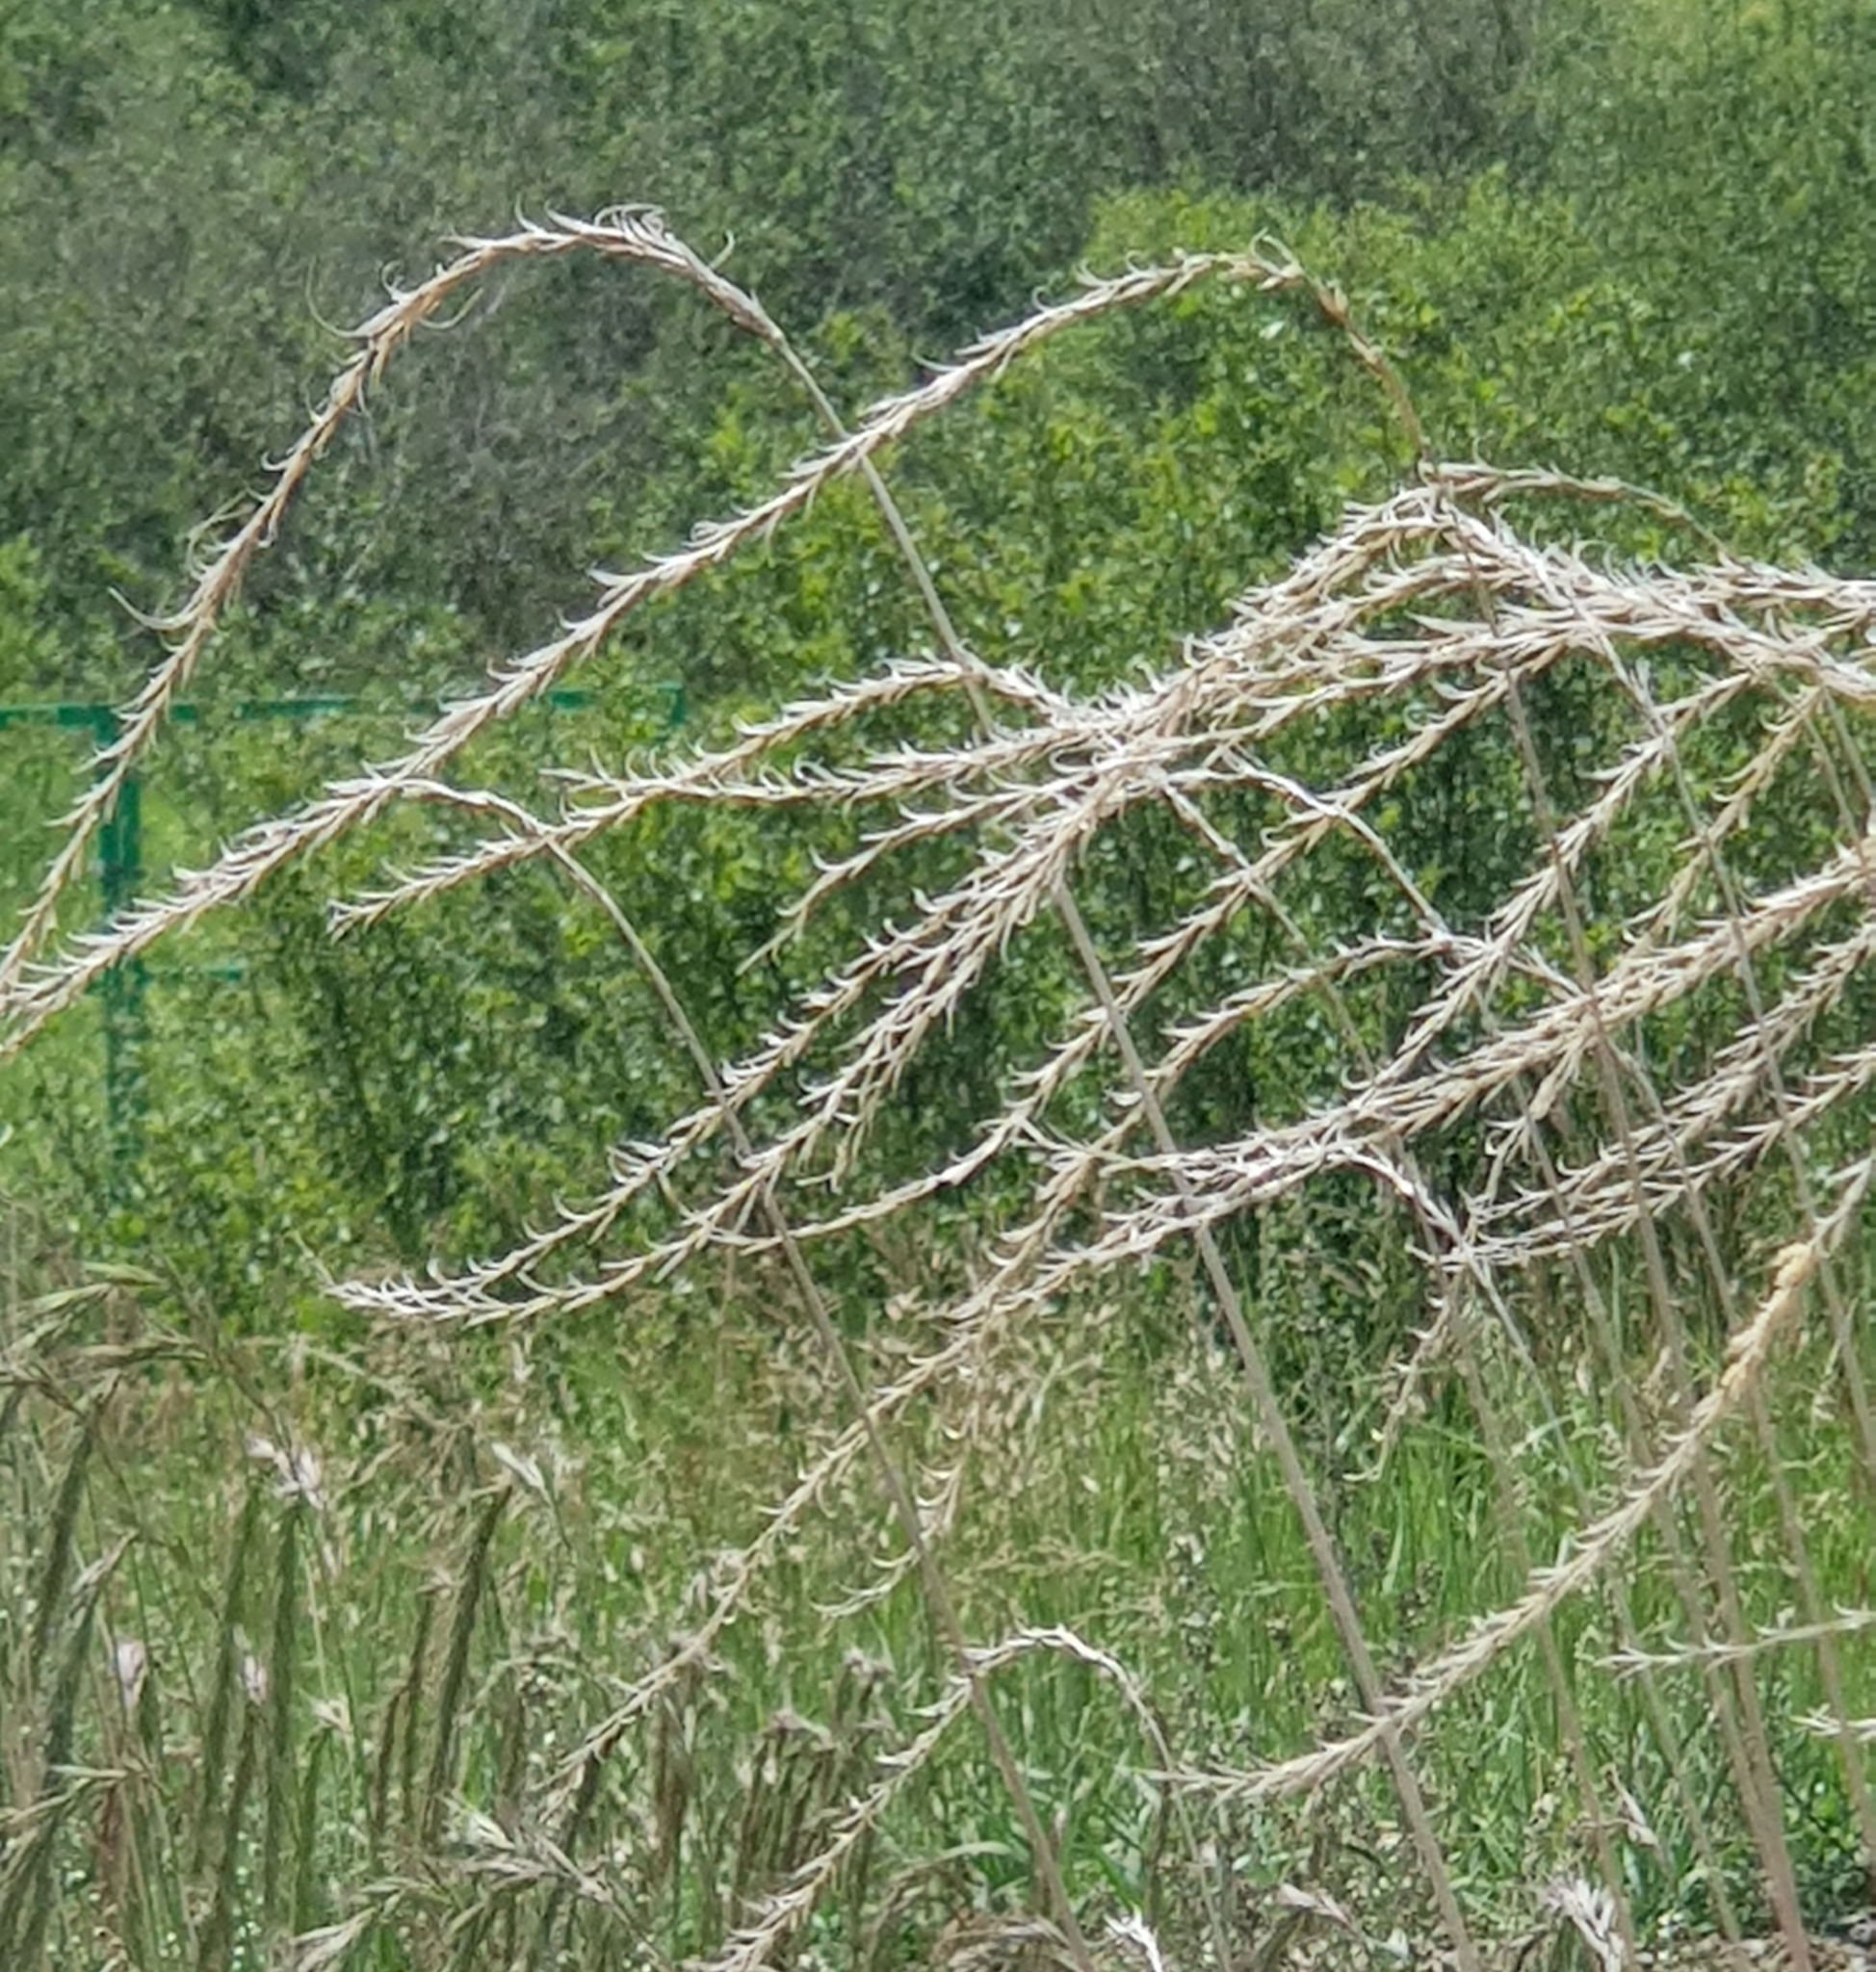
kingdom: Plantae
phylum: Tracheophyta
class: Liliopsida
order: Poales
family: Poaceae
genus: Elymus
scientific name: Elymus sibiricus
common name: Siberian wildrye
